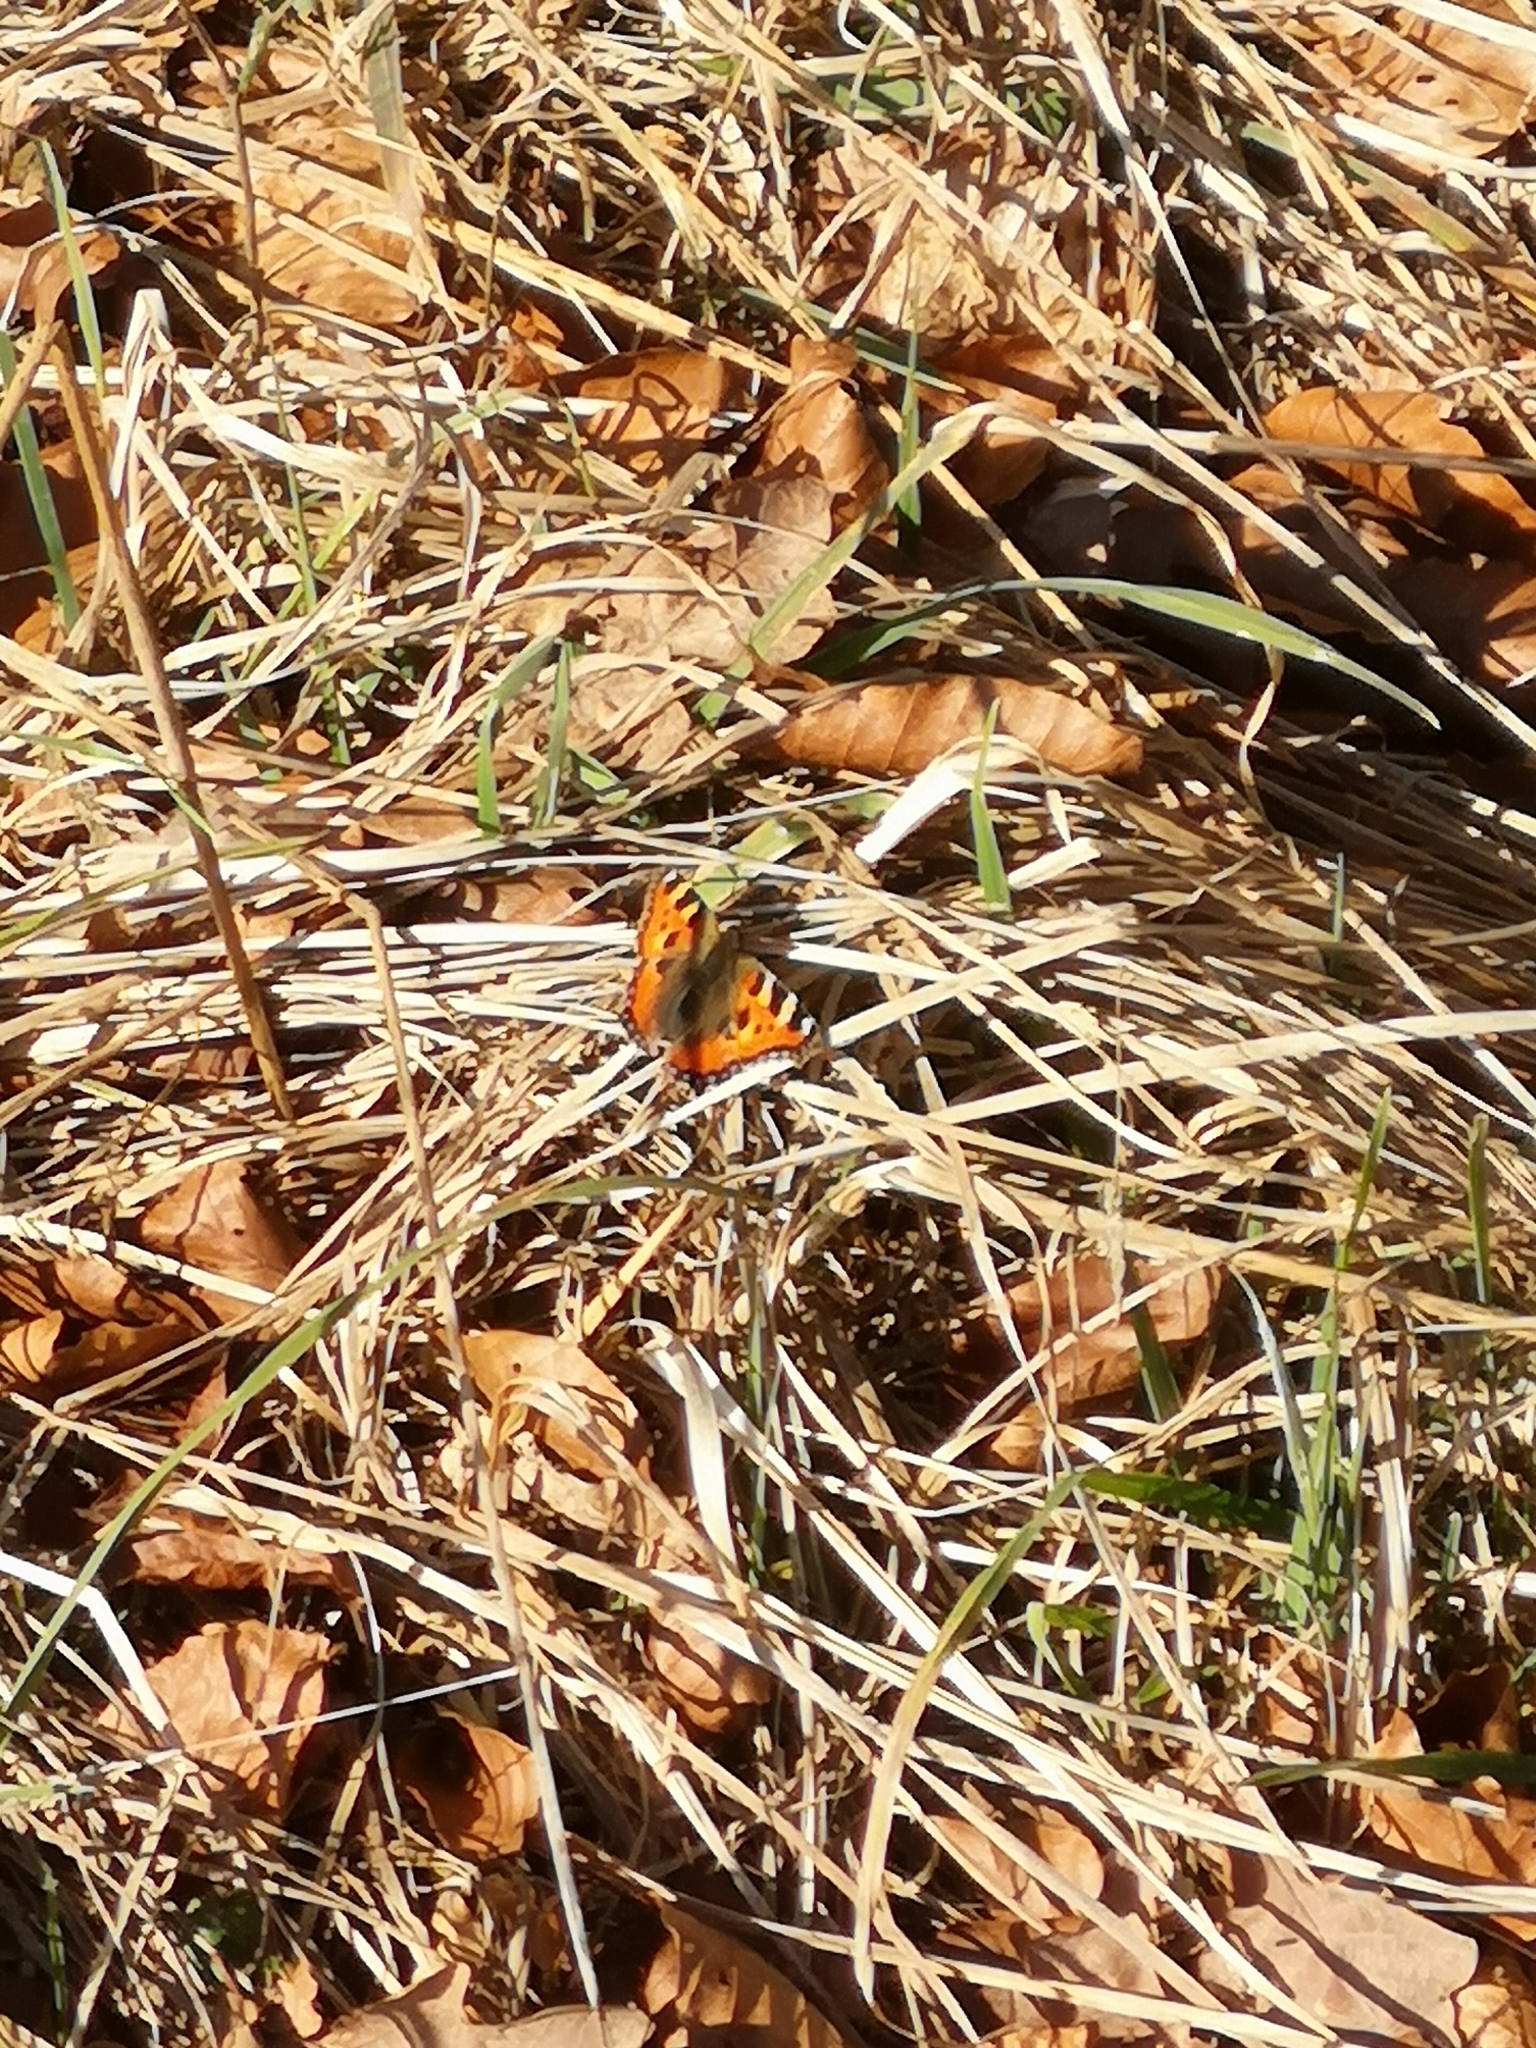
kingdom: Animalia
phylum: Arthropoda
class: Insecta
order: Lepidoptera
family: Nymphalidae
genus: Aglais
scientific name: Aglais urticae
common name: Small tortoiseshell
